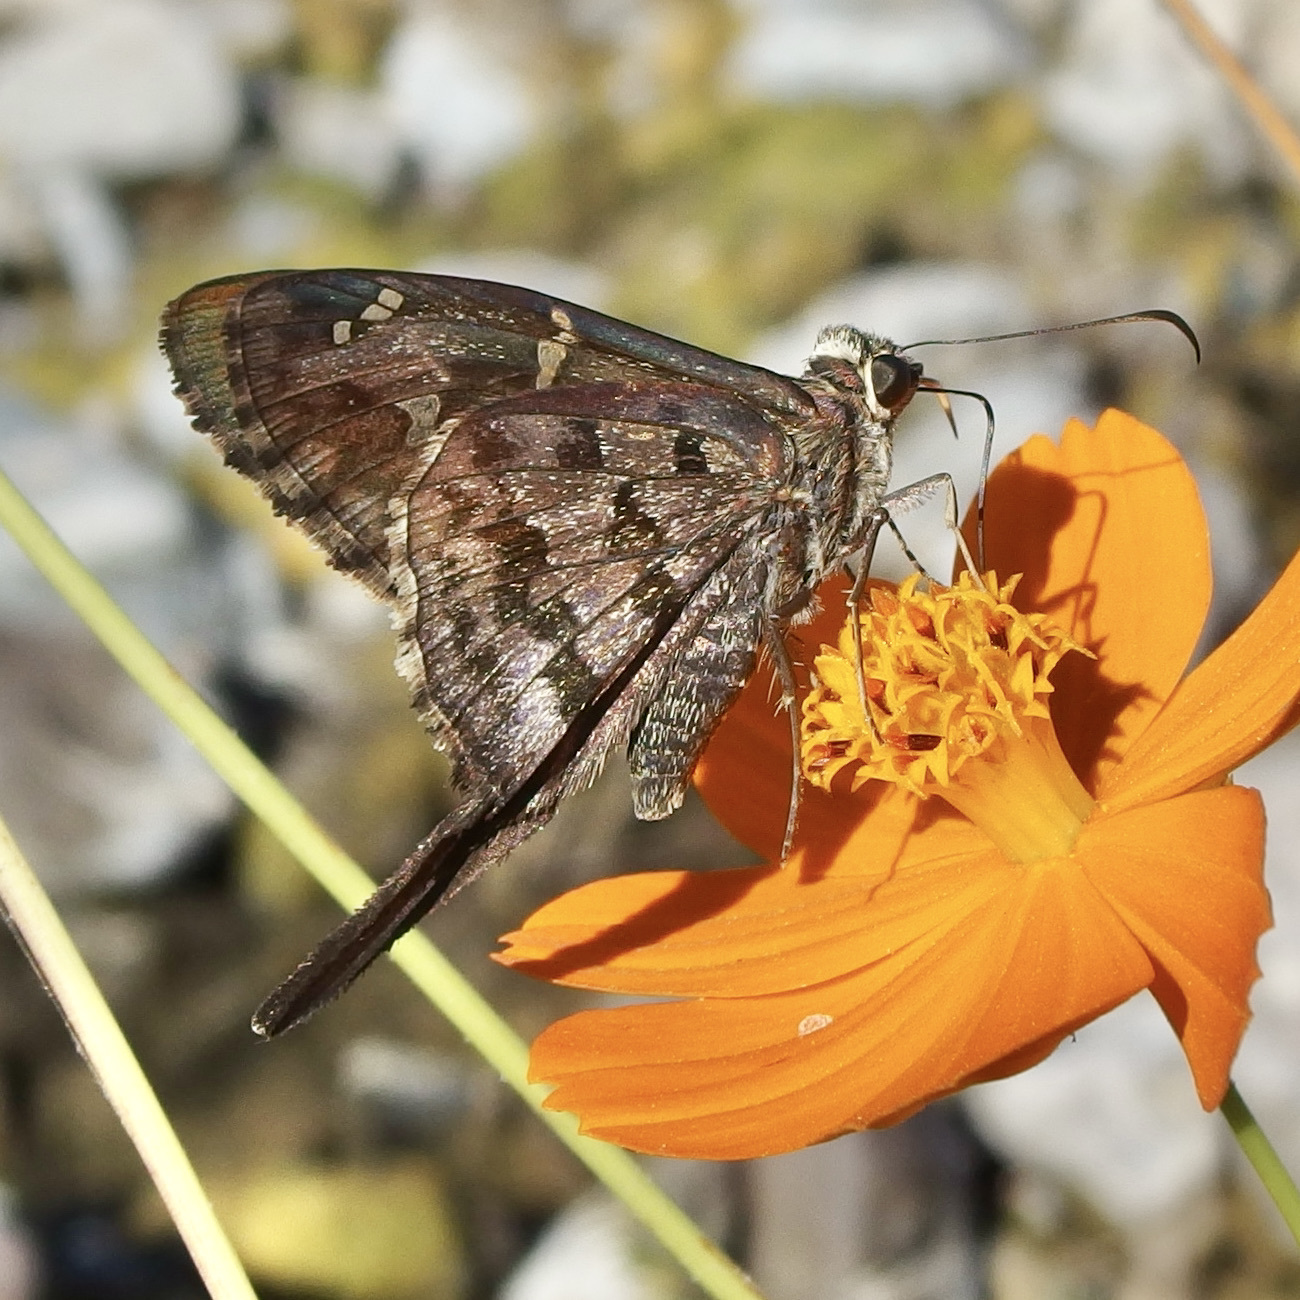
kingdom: Animalia
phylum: Arthropoda
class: Insecta
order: Lepidoptera
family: Hesperiidae
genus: Thorybes
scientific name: Thorybes
